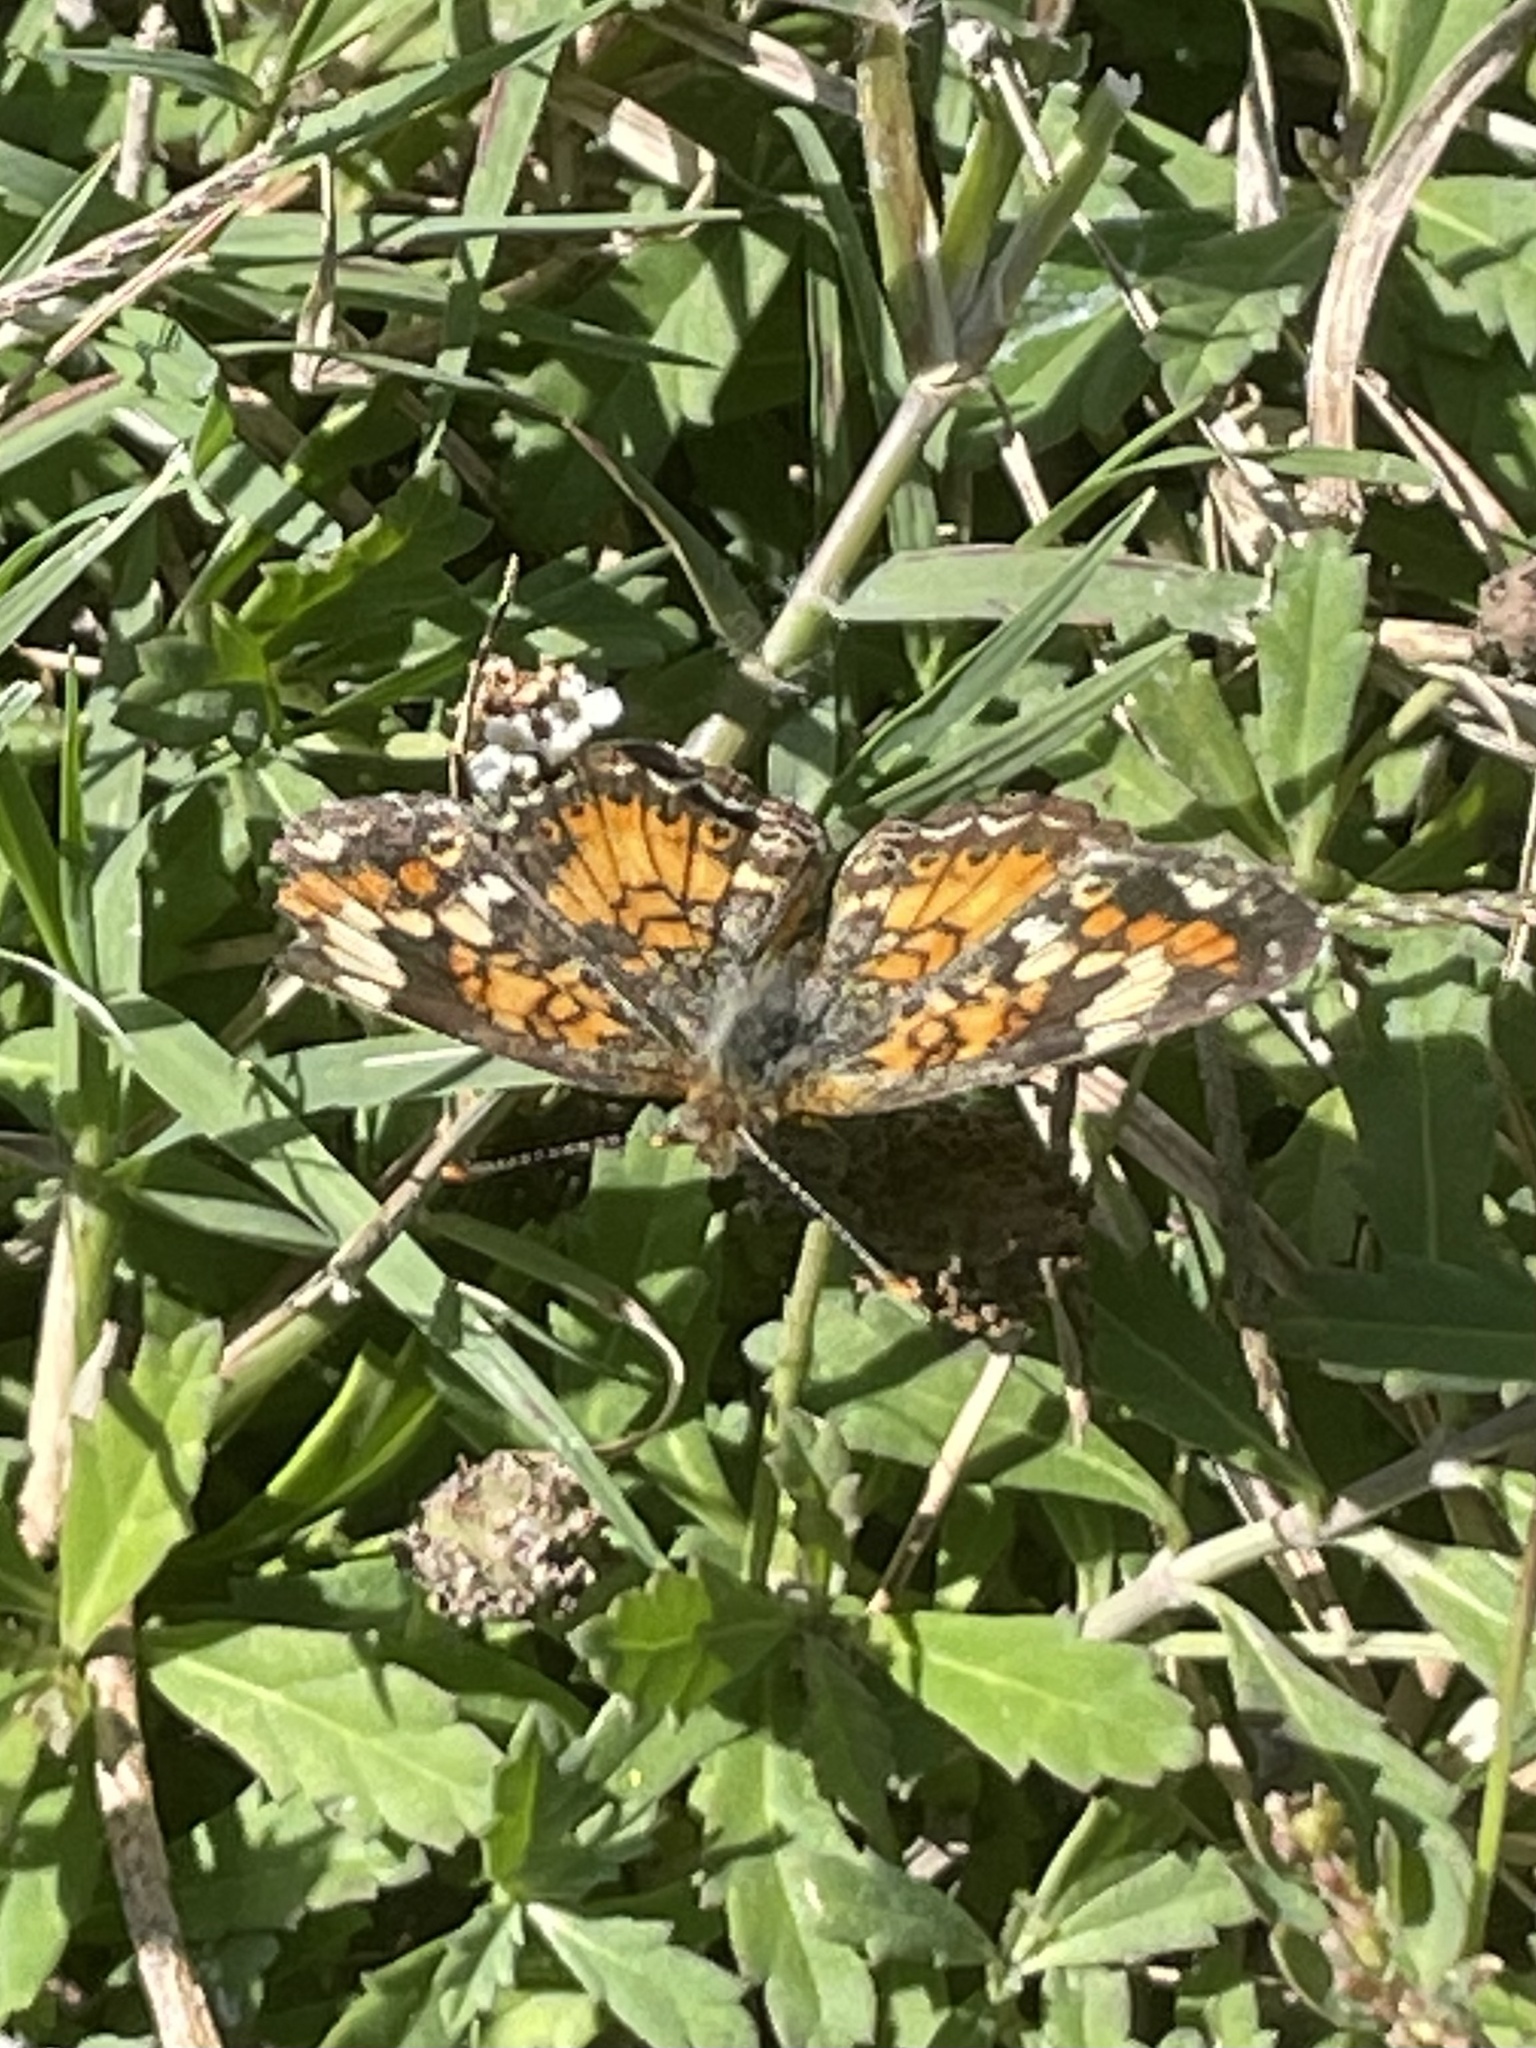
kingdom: Animalia
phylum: Arthropoda
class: Insecta
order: Lepidoptera
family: Nymphalidae
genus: Phyciodes
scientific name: Phyciodes phaon
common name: Phaon crescent
